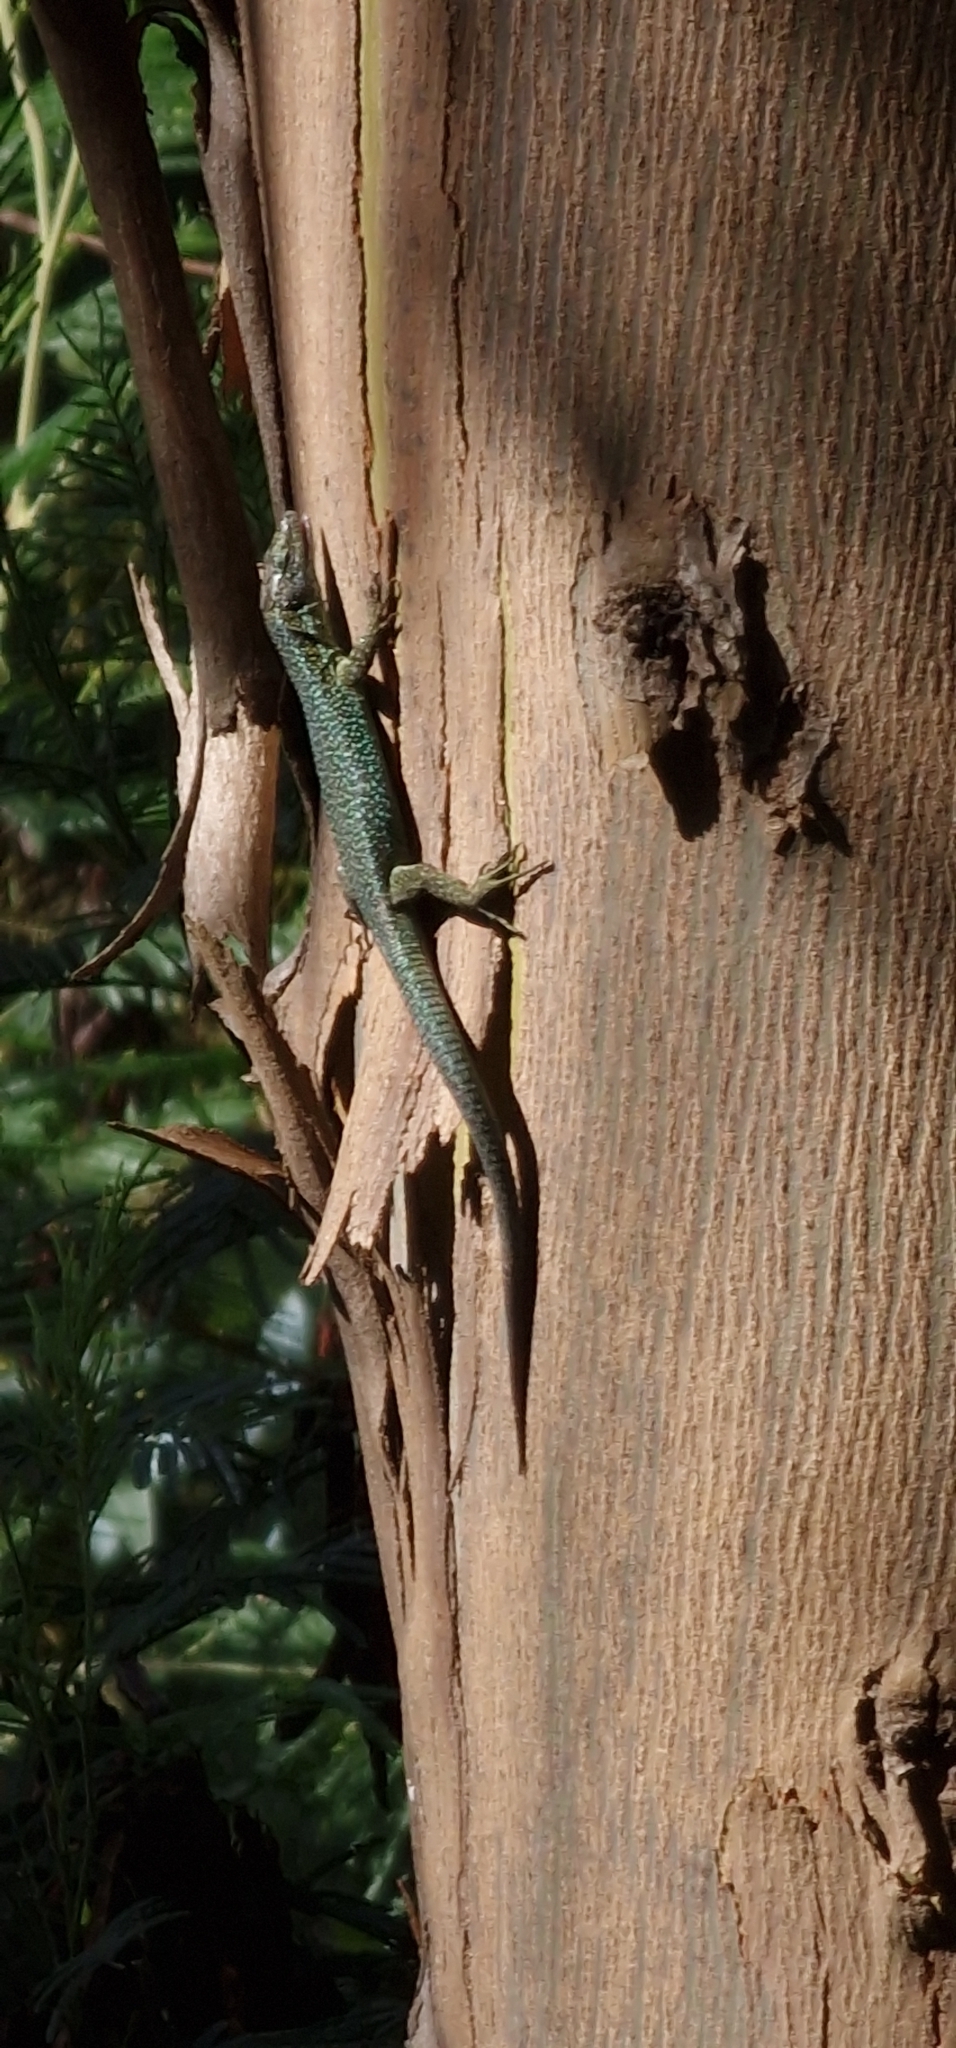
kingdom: Animalia
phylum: Chordata
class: Squamata
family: Lacertidae
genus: Teira
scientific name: Teira dugesii
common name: Madeira lizard
